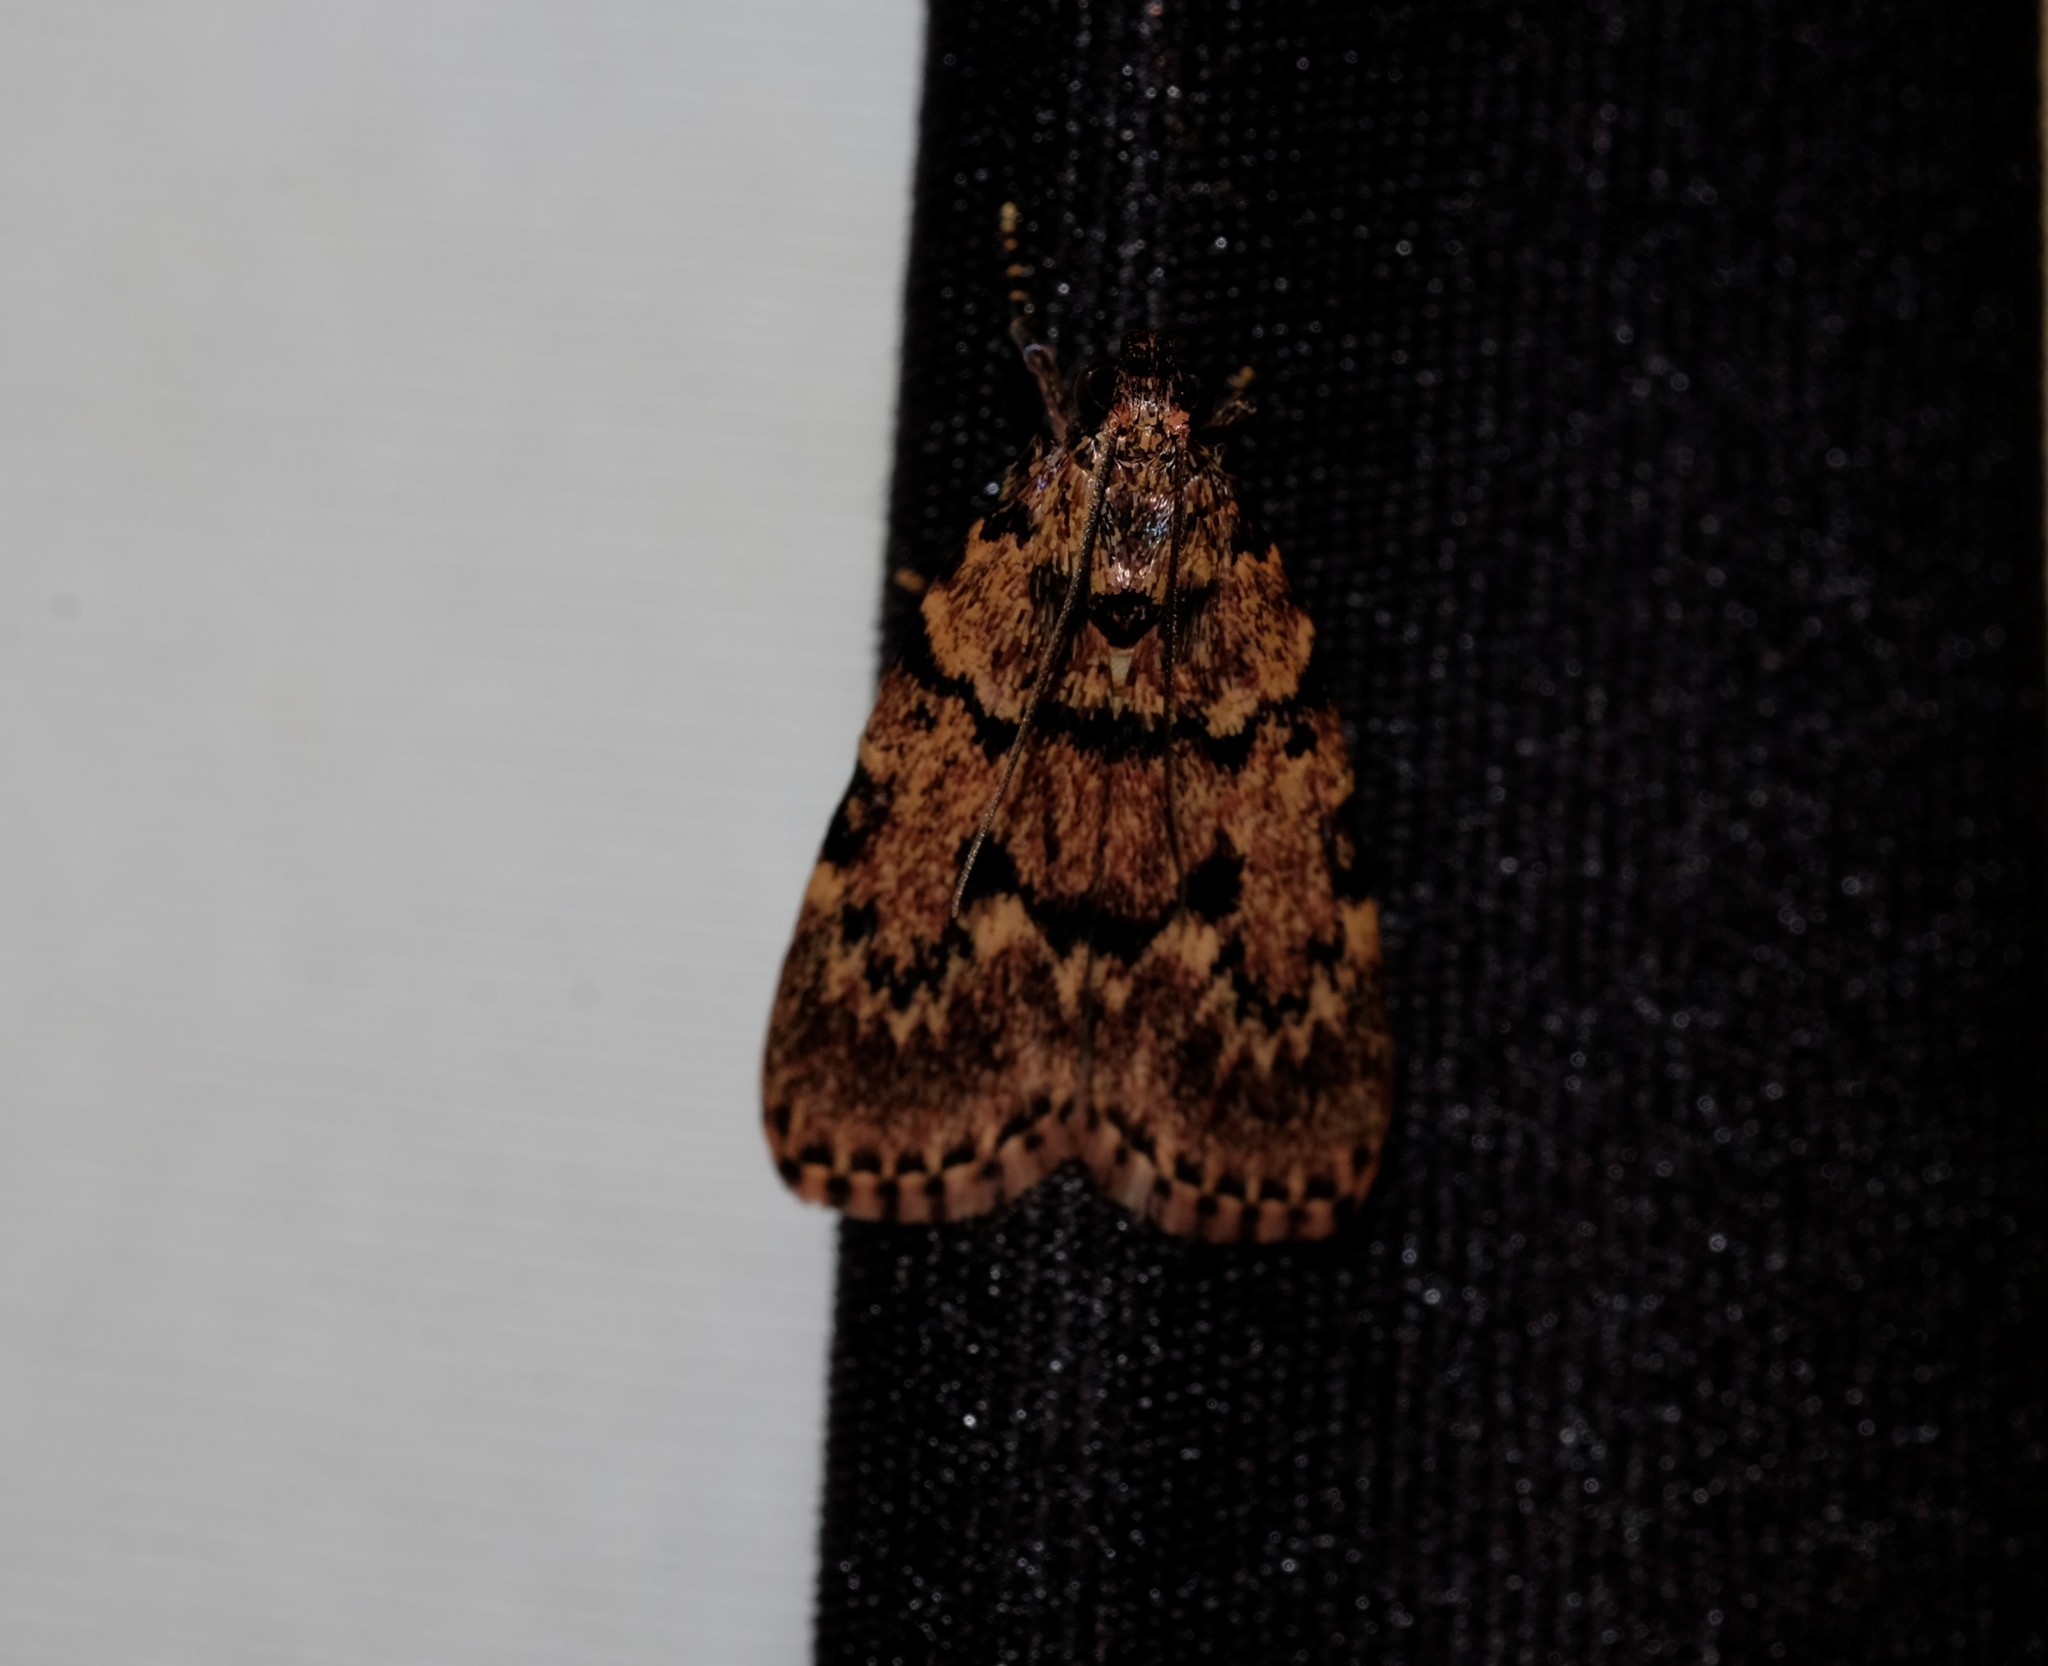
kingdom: Animalia
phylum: Arthropoda
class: Insecta
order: Lepidoptera
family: Pyralidae
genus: Mimaglossa
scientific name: Mimaglossa nauplialis
